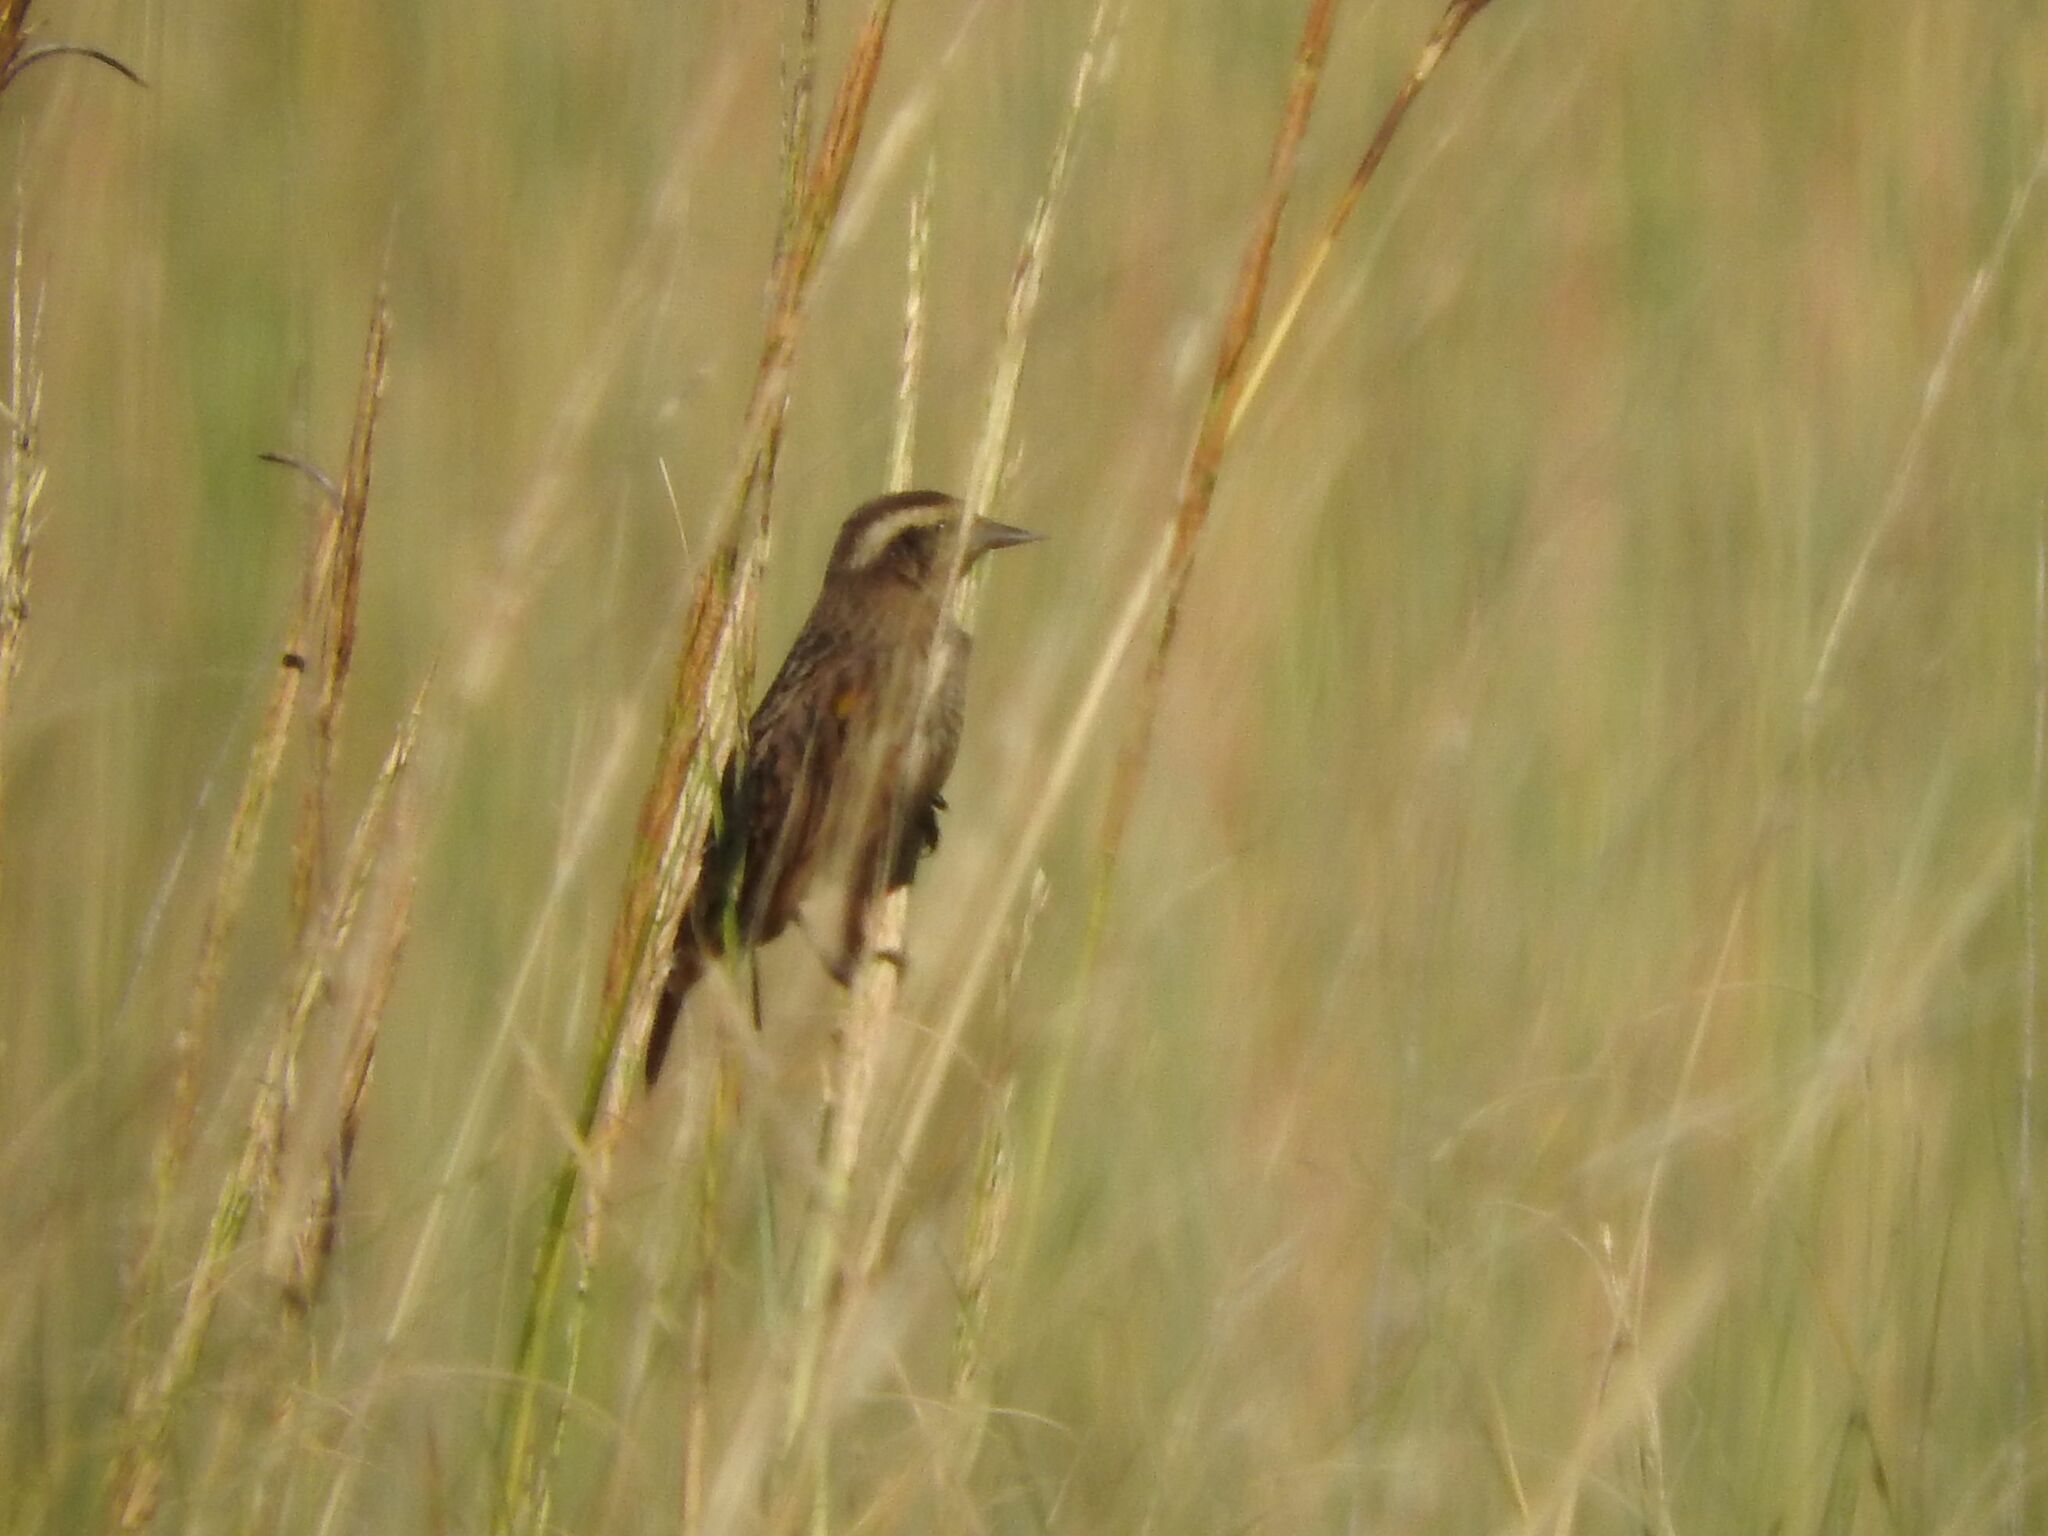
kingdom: Animalia
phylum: Chordata
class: Aves
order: Passeriformes
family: Icteridae
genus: Agelasticus
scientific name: Agelasticus thilius
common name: Yellow-winged blackbird
